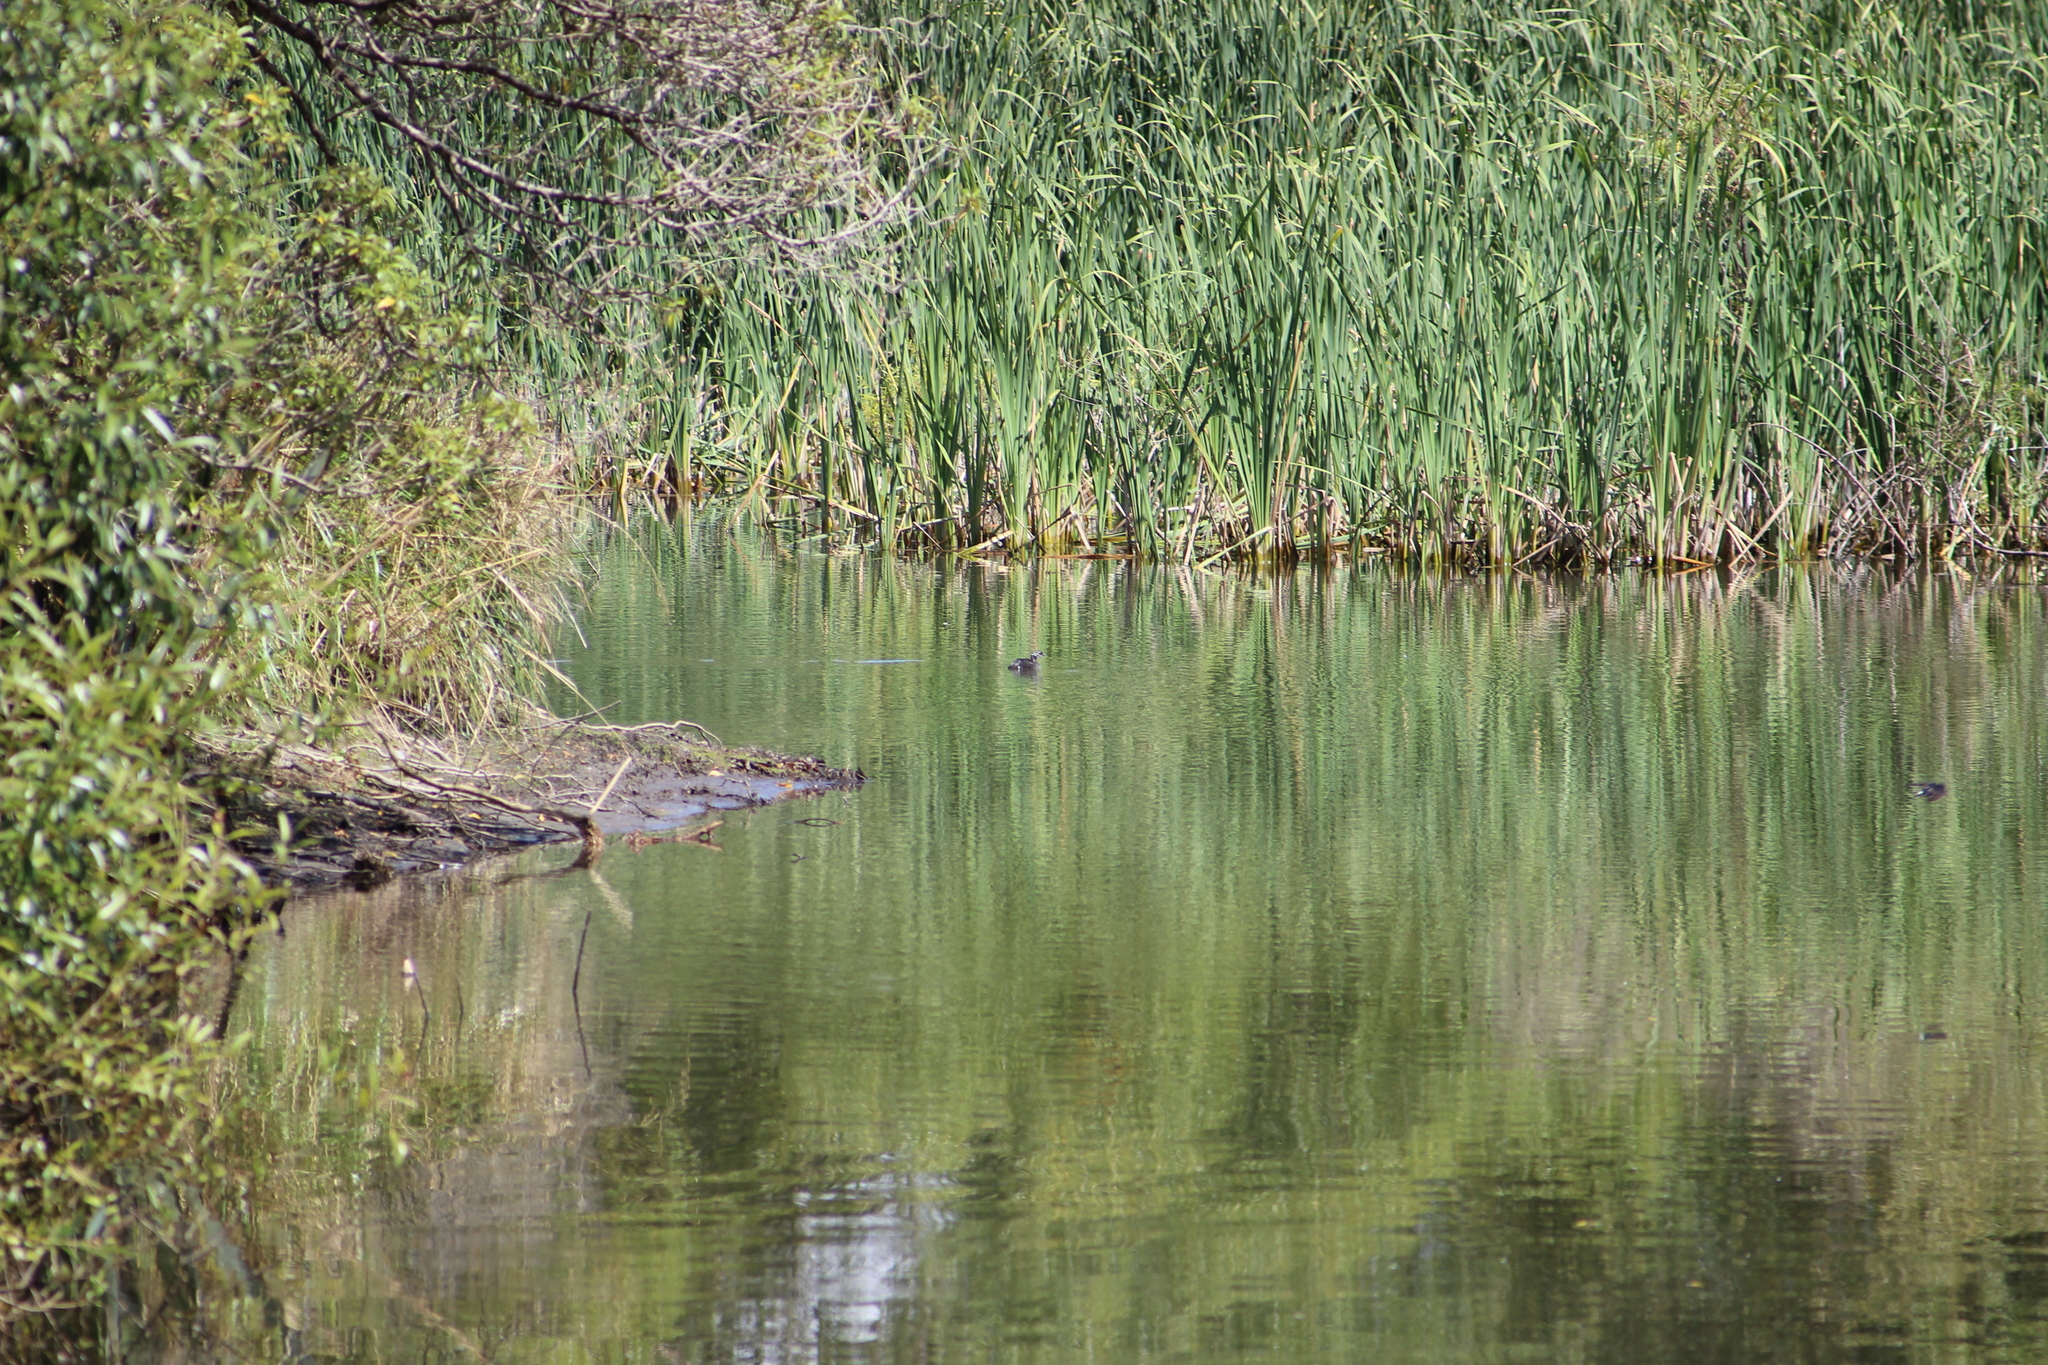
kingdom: Animalia
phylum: Chordata
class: Aves
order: Podicipediformes
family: Podicipedidae
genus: Poliocephalus
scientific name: Poliocephalus rufopectus
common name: New zealand grebe
